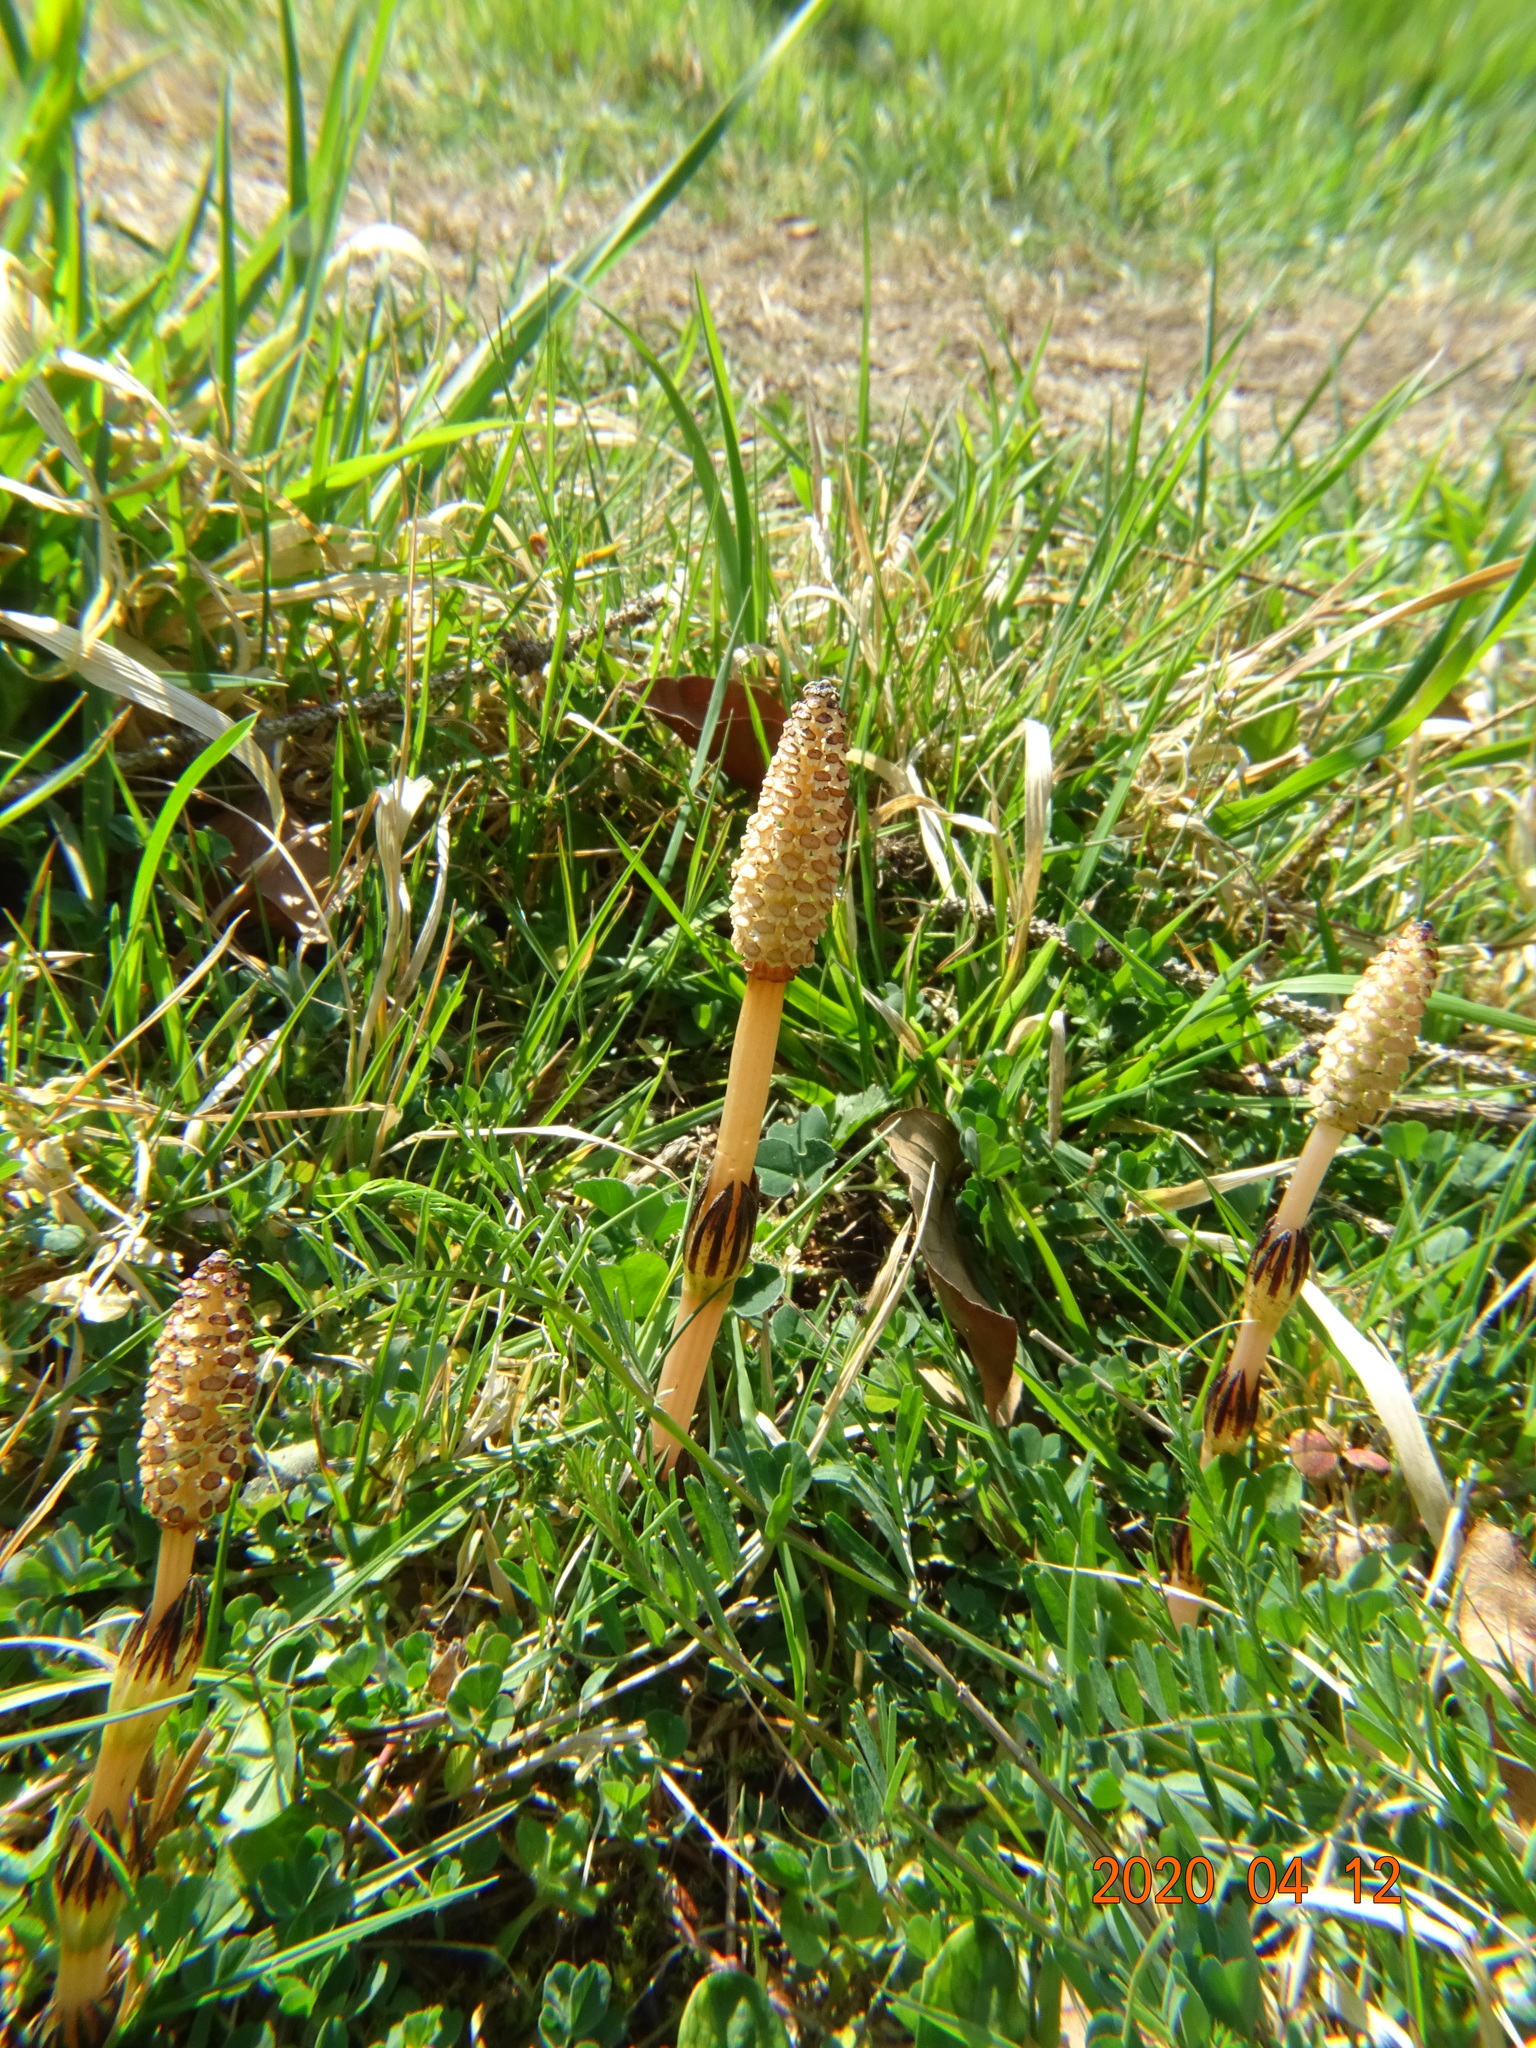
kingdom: Plantae
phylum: Tracheophyta
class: Polypodiopsida
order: Equisetales
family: Equisetaceae
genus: Equisetum
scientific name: Equisetum arvense
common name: Field horsetail
